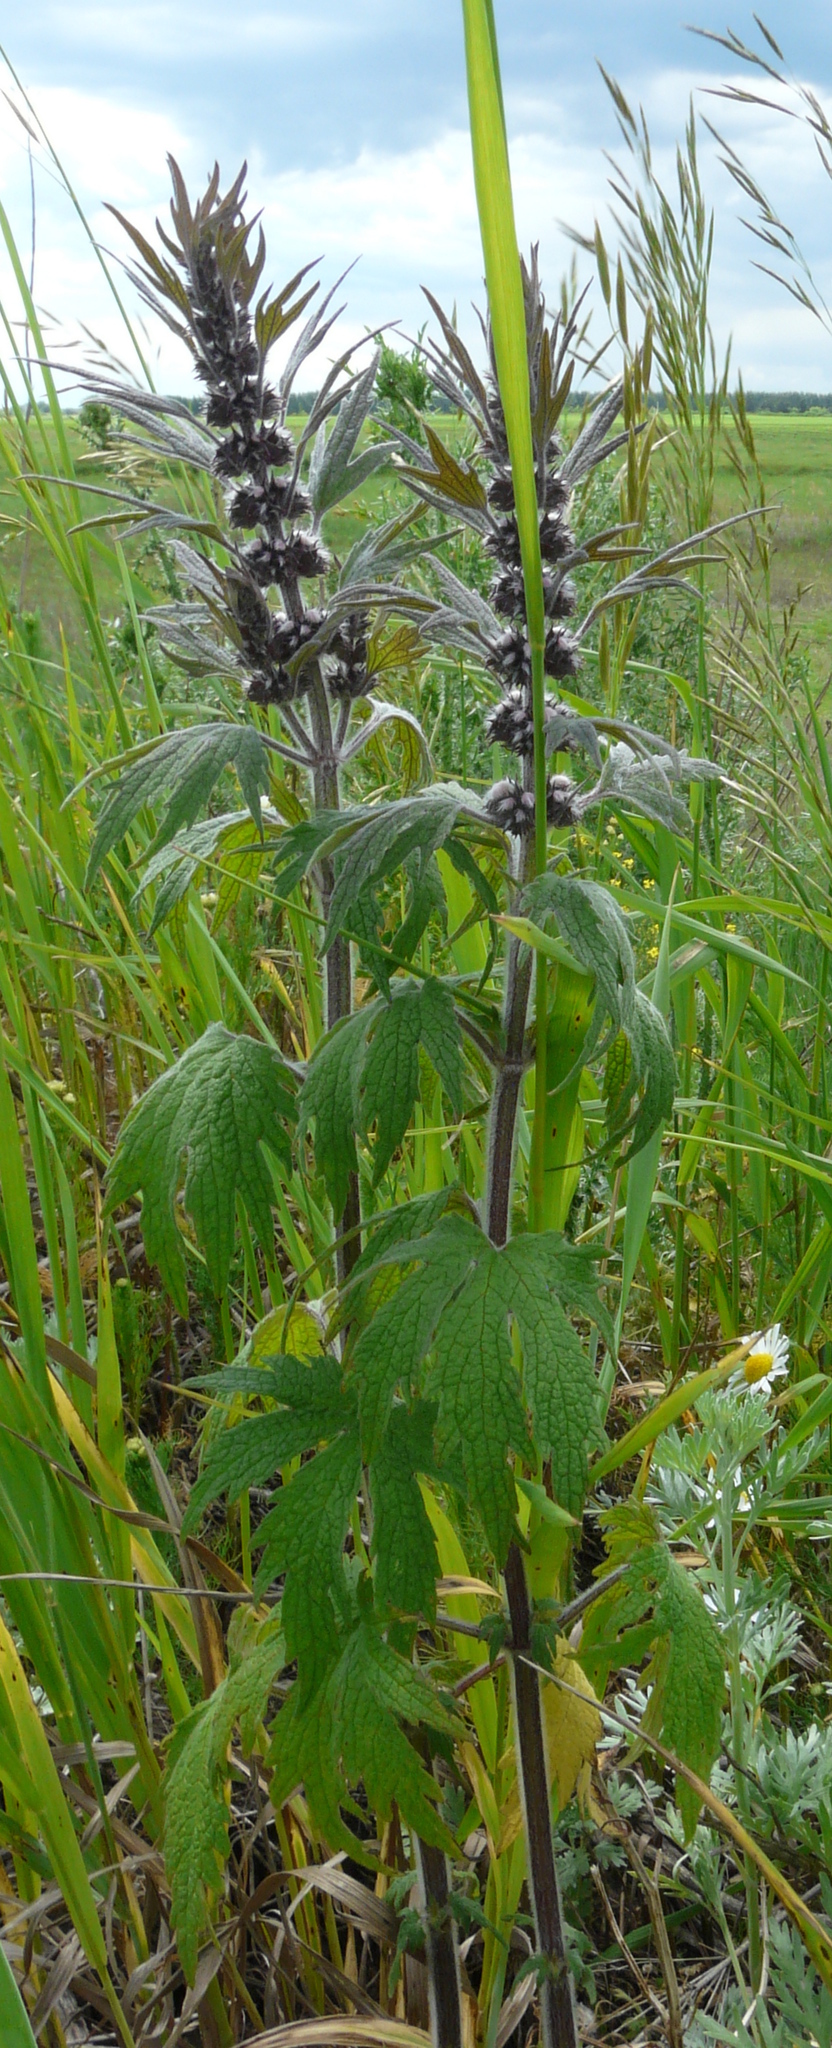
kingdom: Plantae
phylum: Tracheophyta
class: Magnoliopsida
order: Lamiales
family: Lamiaceae
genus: Leonurus
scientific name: Leonurus quinquelobatus
